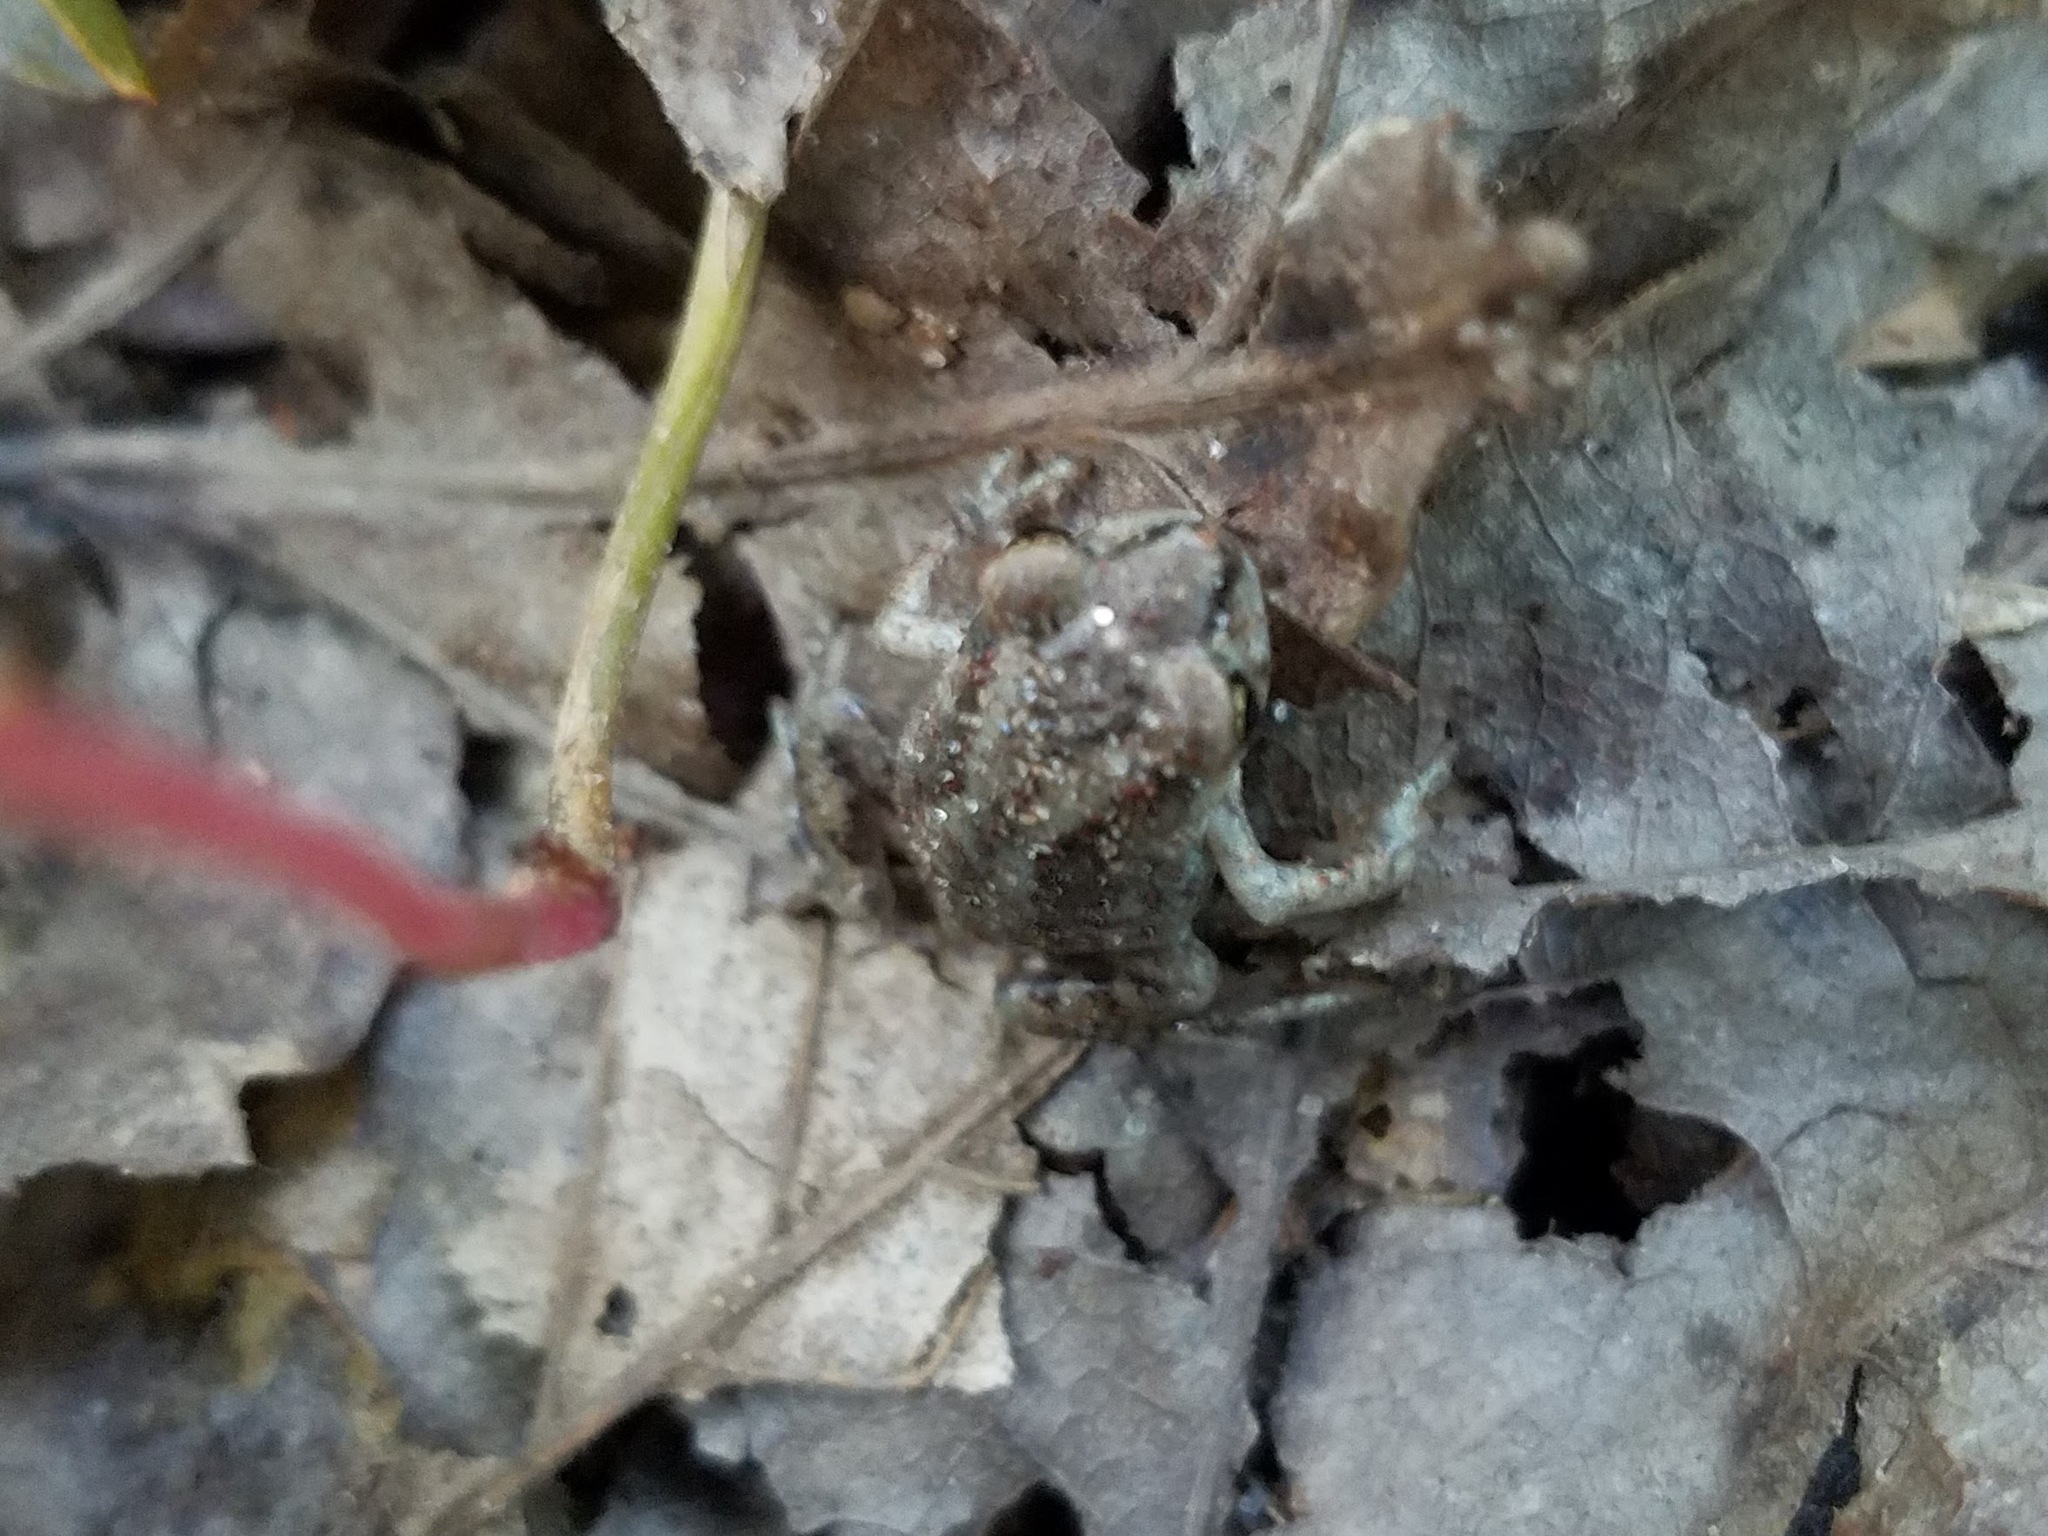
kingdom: Animalia
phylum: Chordata
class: Amphibia
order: Anura
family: Scaphiopodidae
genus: Scaphiopus
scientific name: Scaphiopus holbrookii
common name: Eastern spadefoot toad
